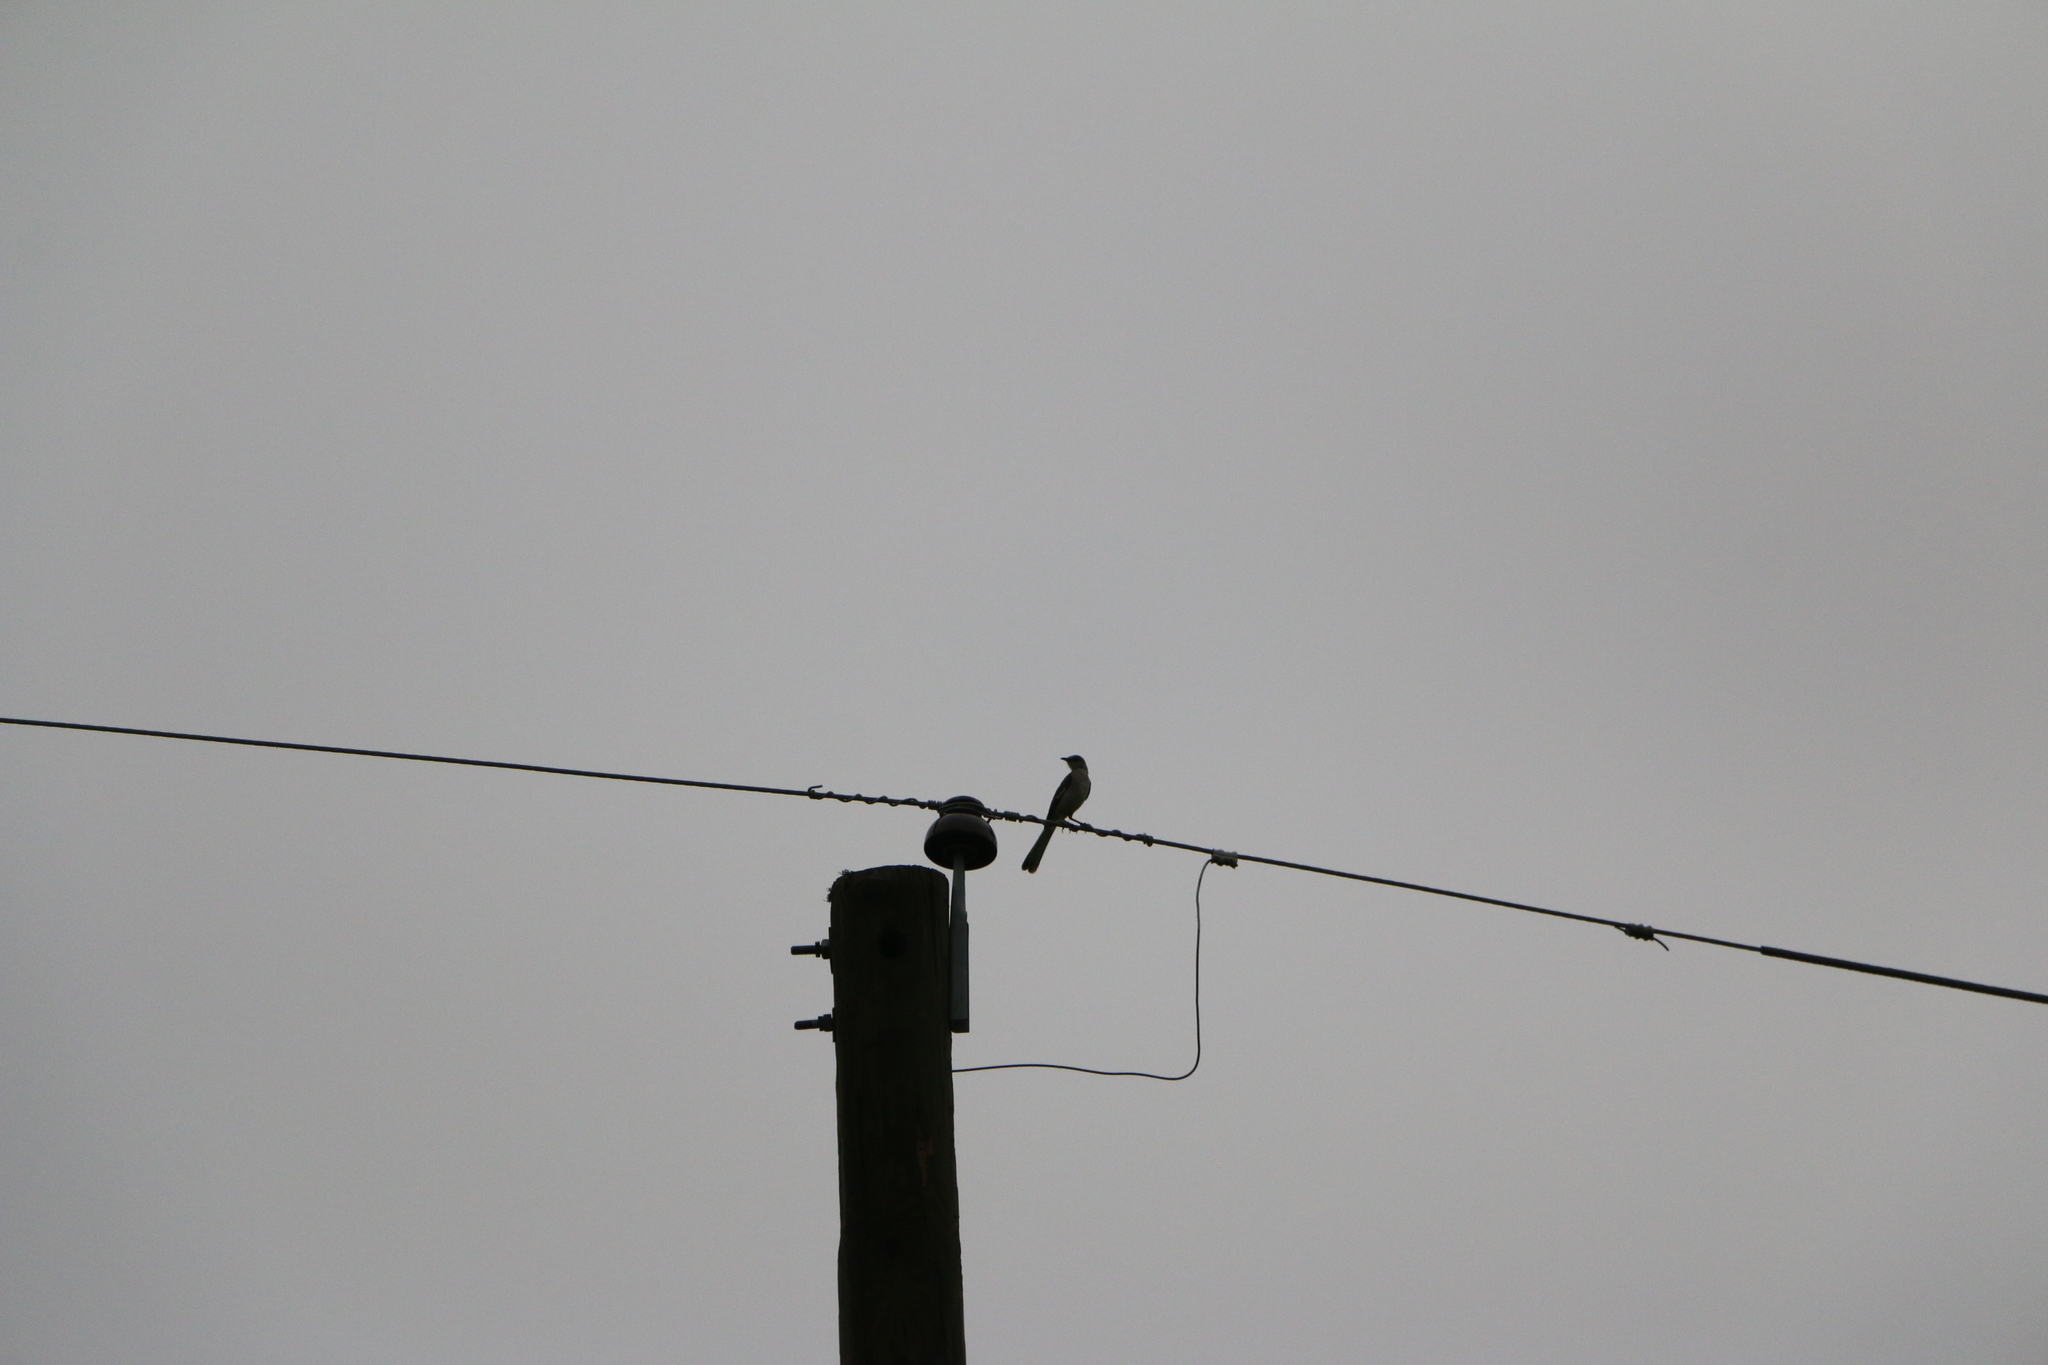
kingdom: Animalia
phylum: Chordata
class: Aves
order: Passeriformes
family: Mimidae
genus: Mimus
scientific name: Mimus polyglottos
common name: Northern mockingbird
